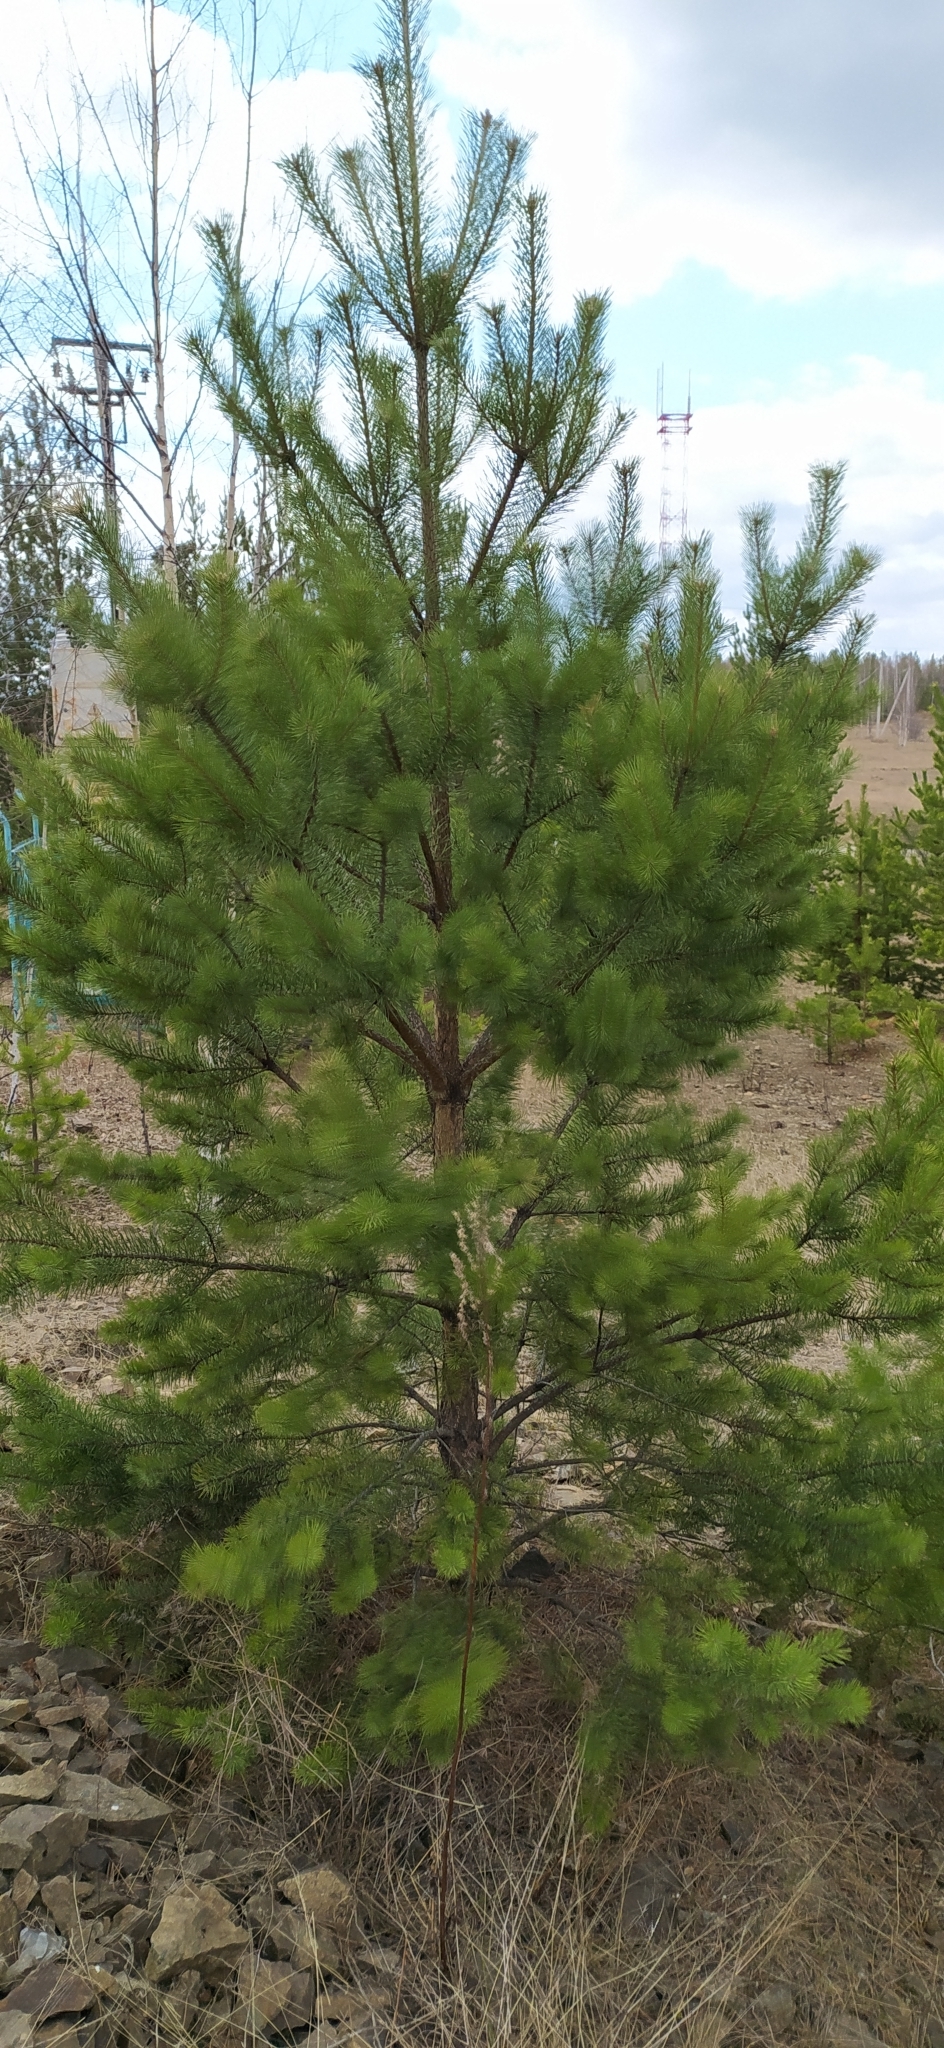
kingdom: Plantae
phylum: Tracheophyta
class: Pinopsida
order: Pinales
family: Pinaceae
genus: Pinus
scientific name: Pinus sylvestris
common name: Scots pine
